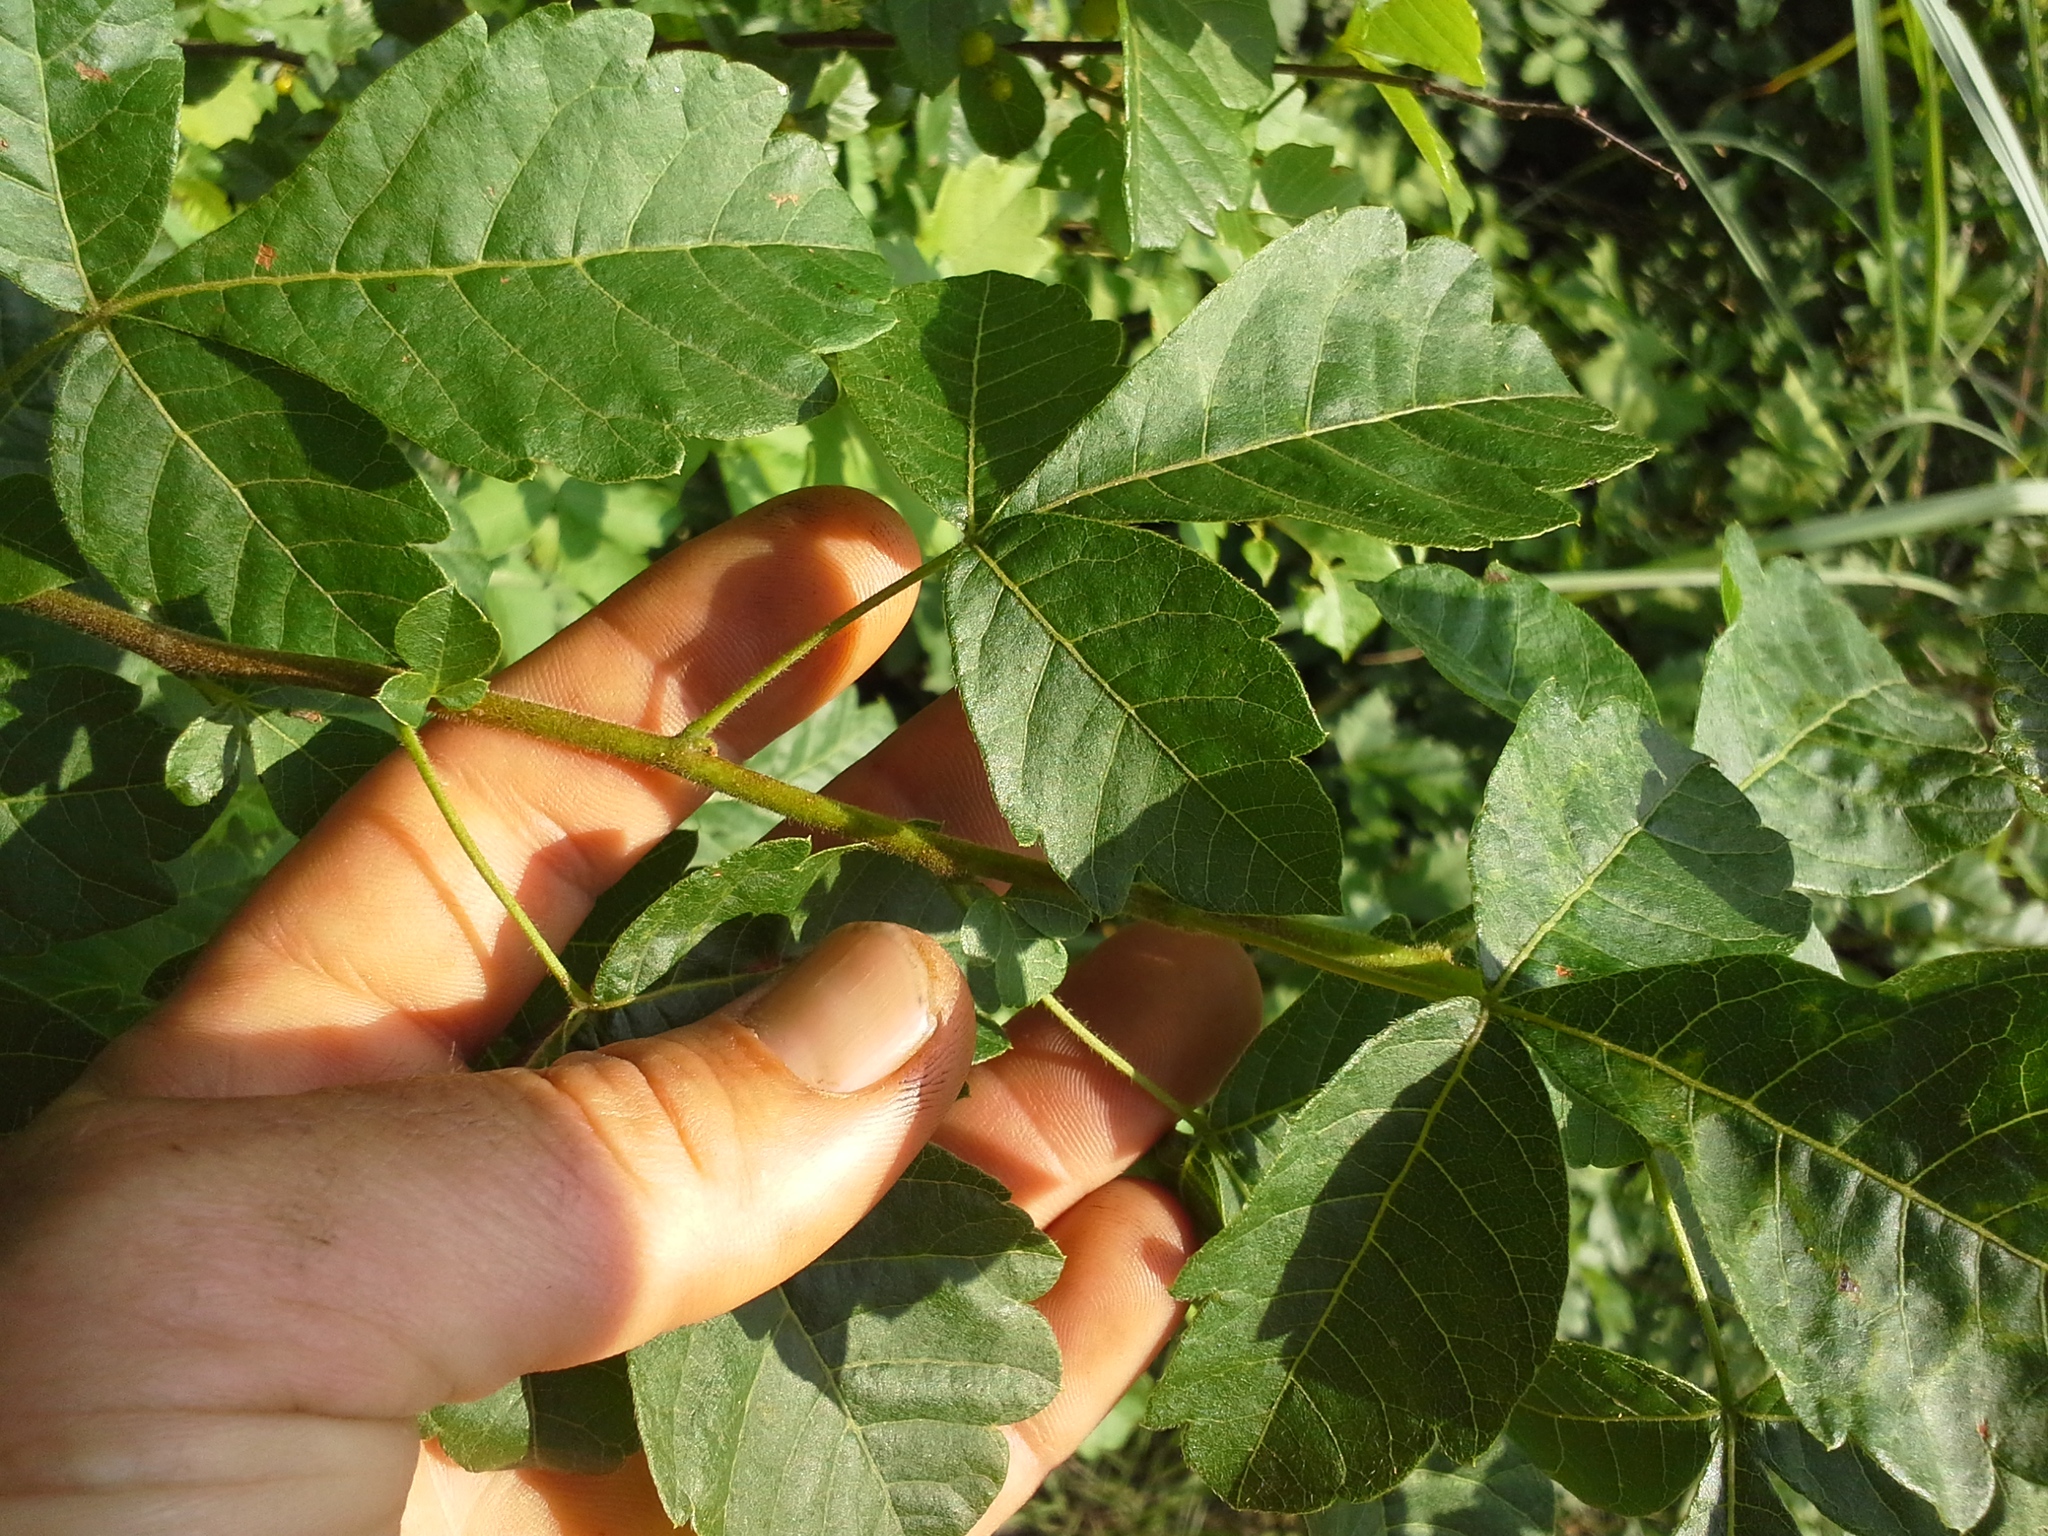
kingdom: Plantae
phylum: Tracheophyta
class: Magnoliopsida
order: Sapindales
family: Anacardiaceae
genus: Searsia
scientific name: Searsia dentata
